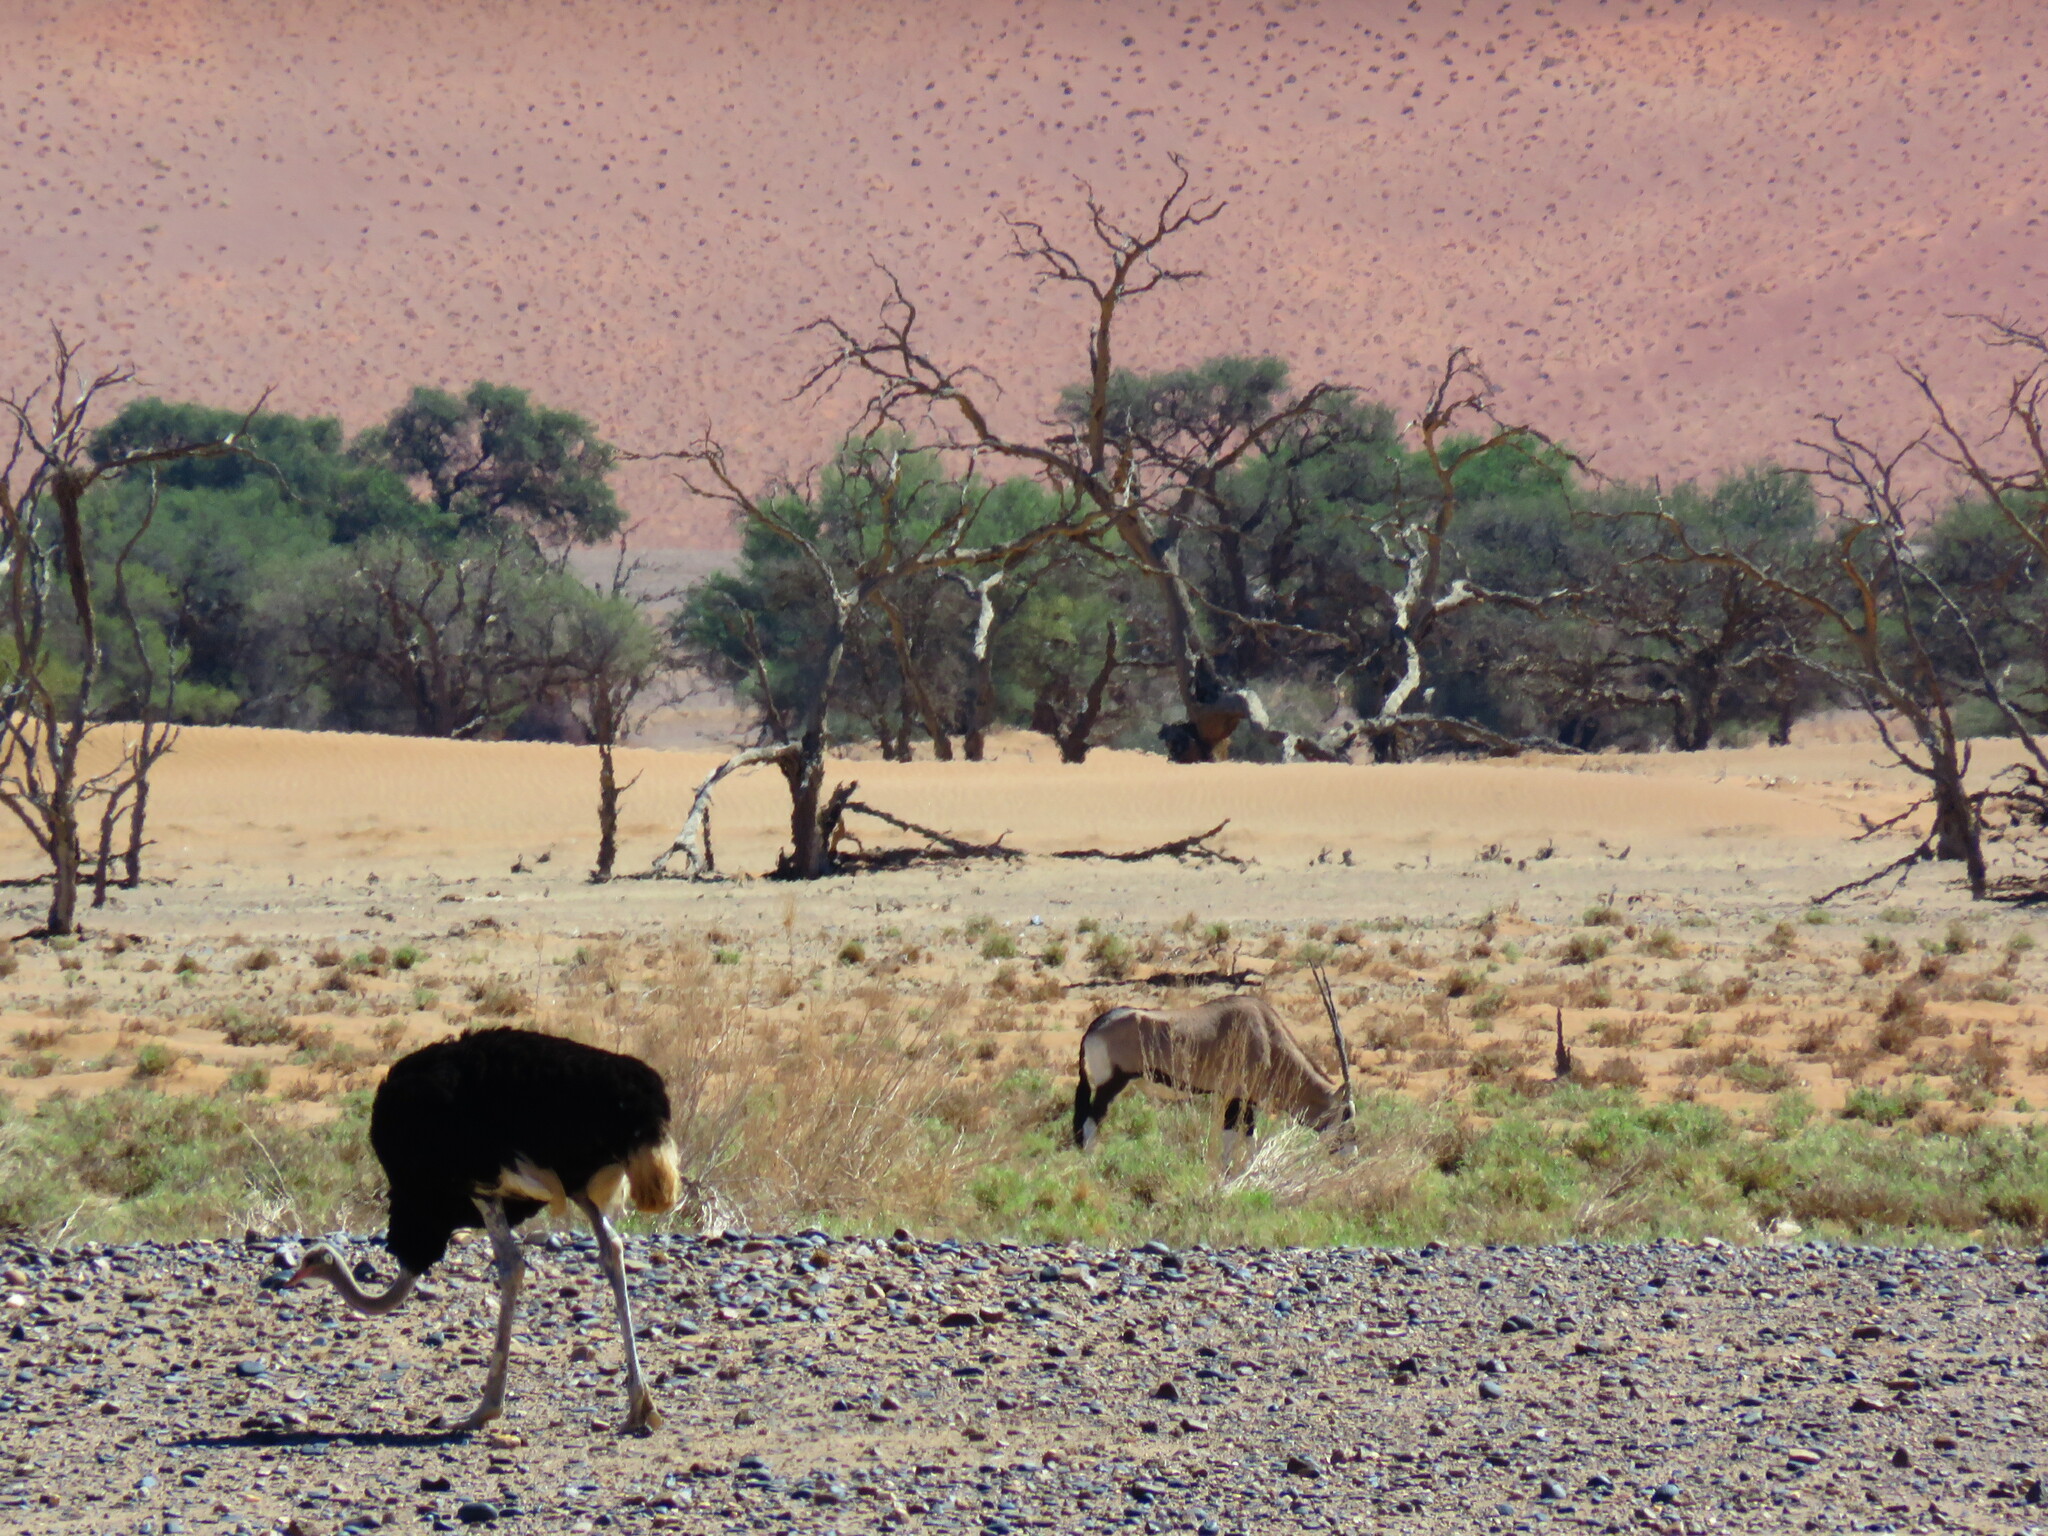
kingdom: Animalia
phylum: Chordata
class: Aves
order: Struthioniformes
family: Struthionidae
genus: Struthio
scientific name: Struthio camelus
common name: Common ostrich
